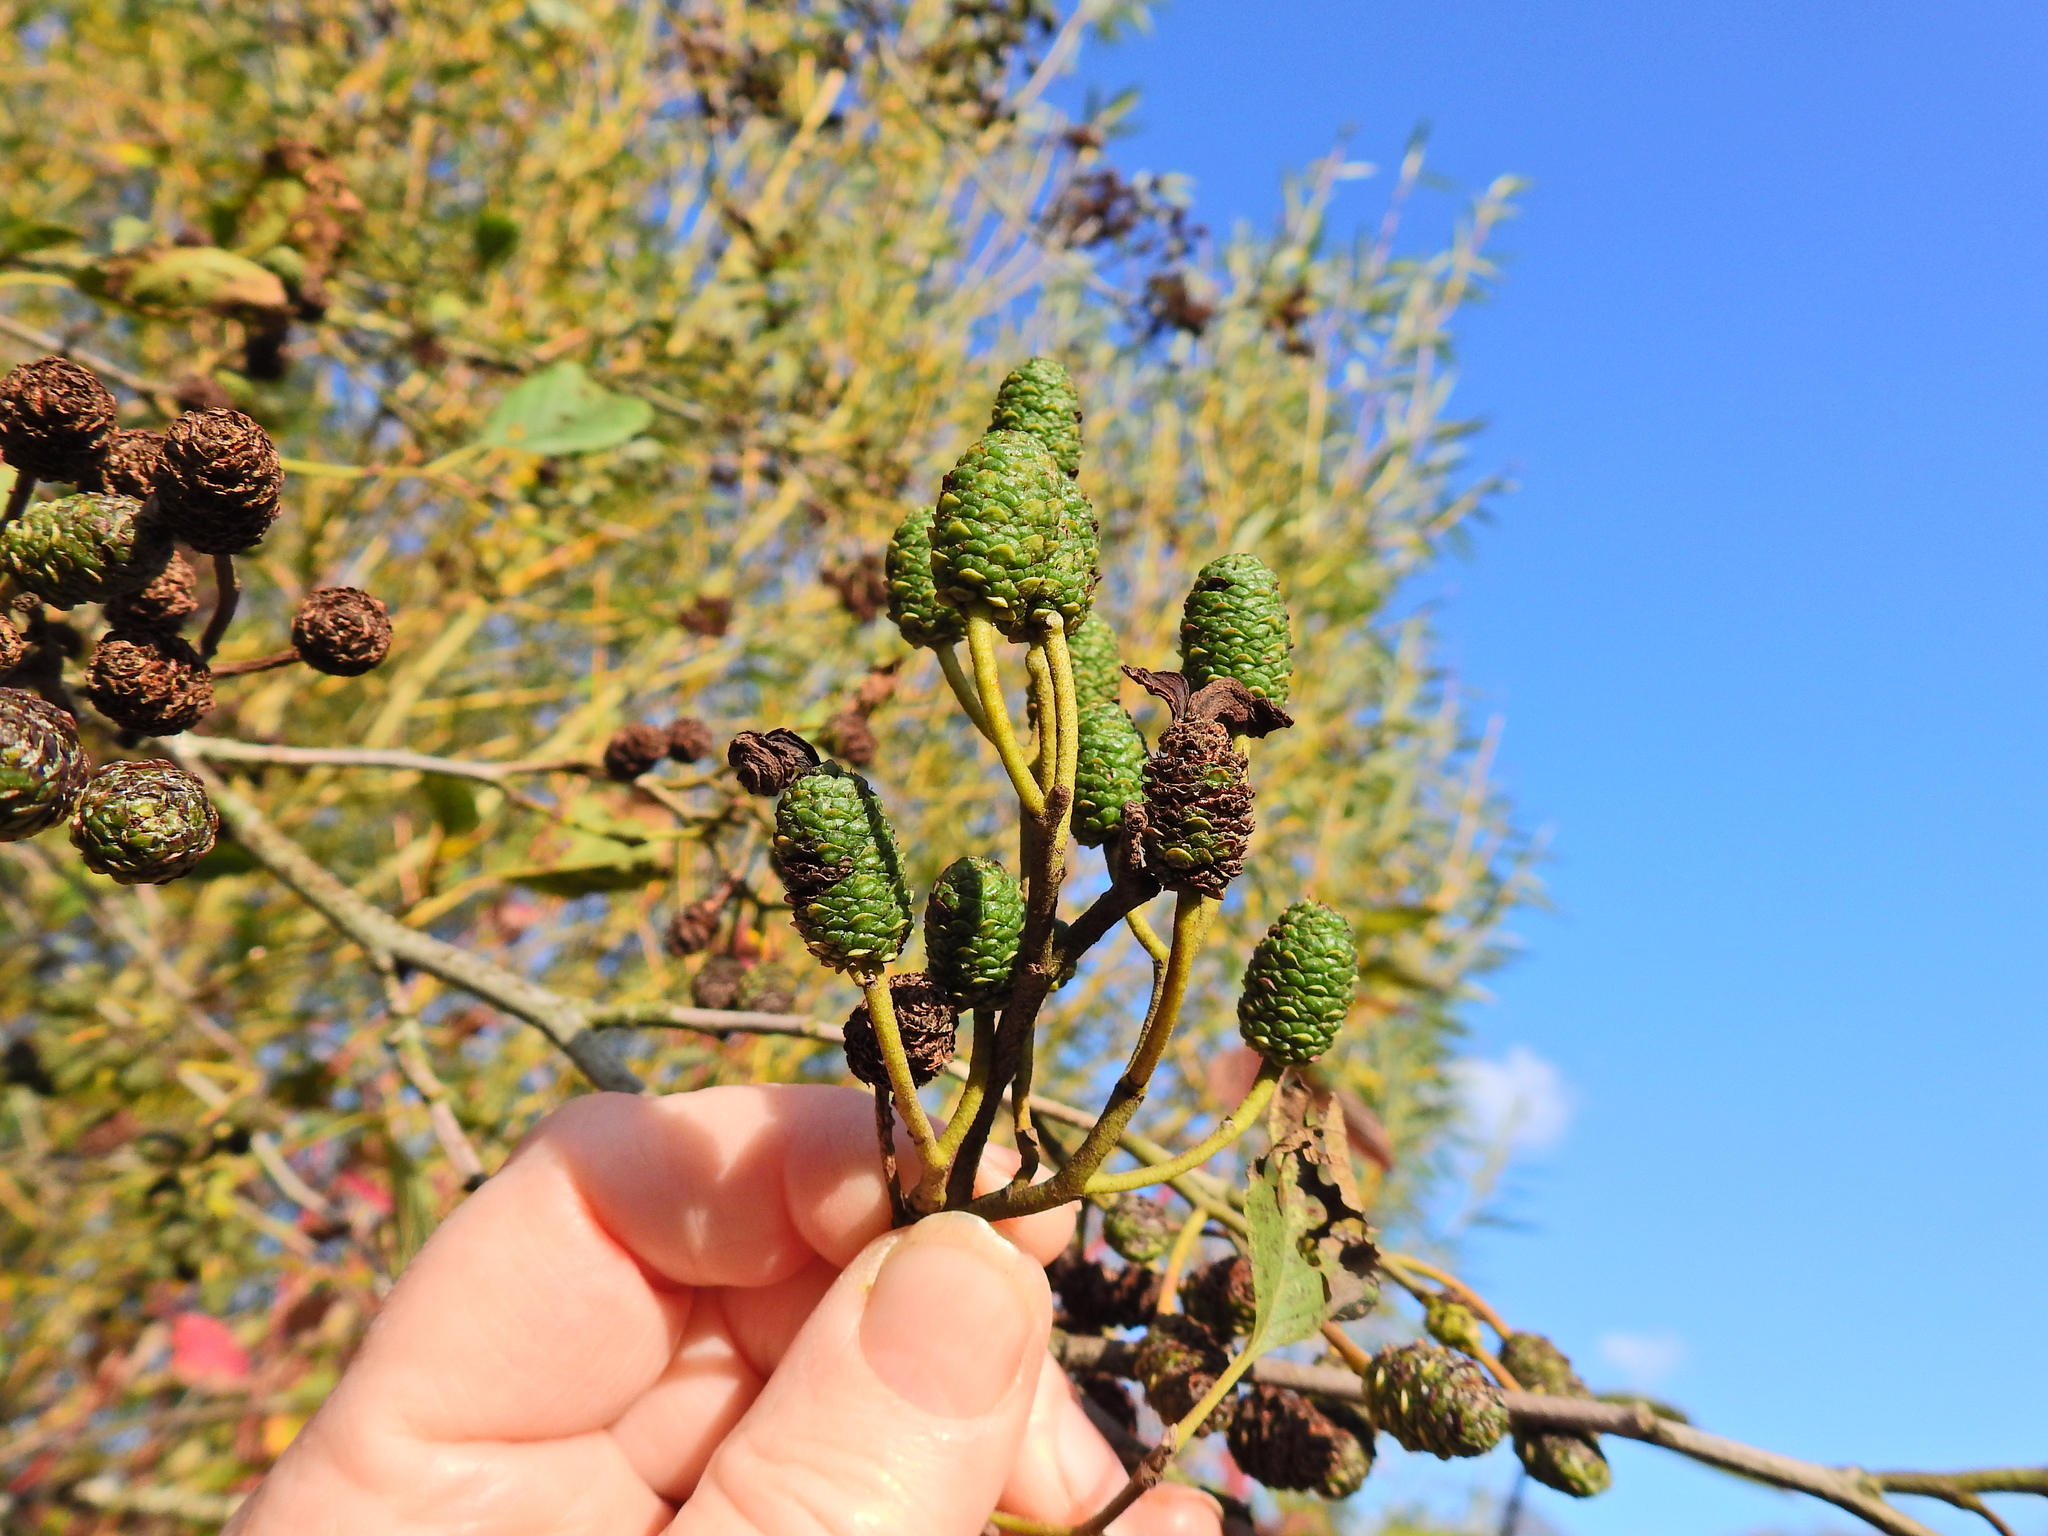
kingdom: Fungi
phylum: Ascomycota
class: Taphrinomycetes
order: Taphrinales
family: Taphrinaceae
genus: Taphrina
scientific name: Taphrina alni
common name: Alder tongue
